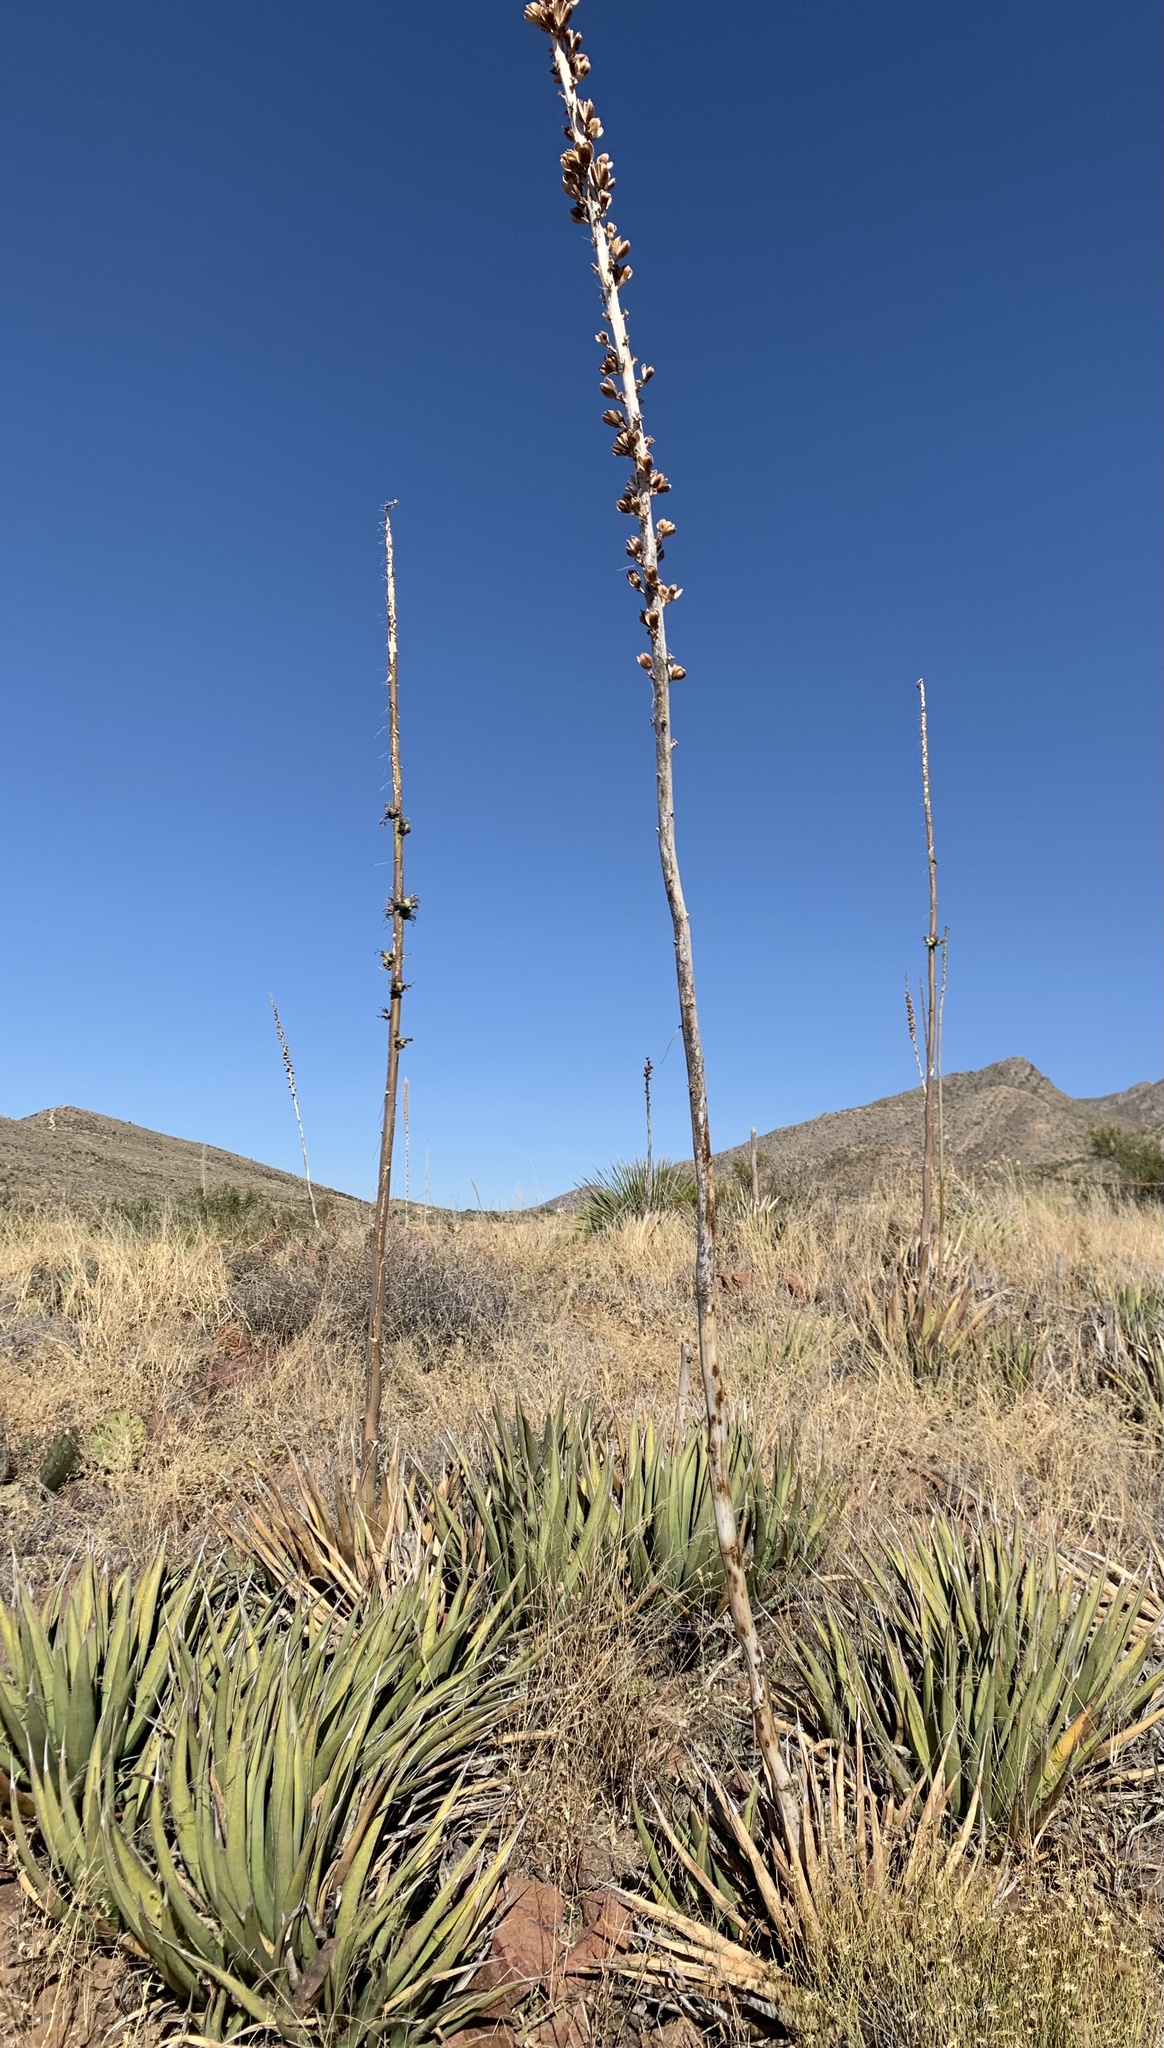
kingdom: Plantae
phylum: Tracheophyta
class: Liliopsida
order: Asparagales
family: Asparagaceae
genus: Agave
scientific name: Agave lechuguilla
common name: Lecheguilla agave
